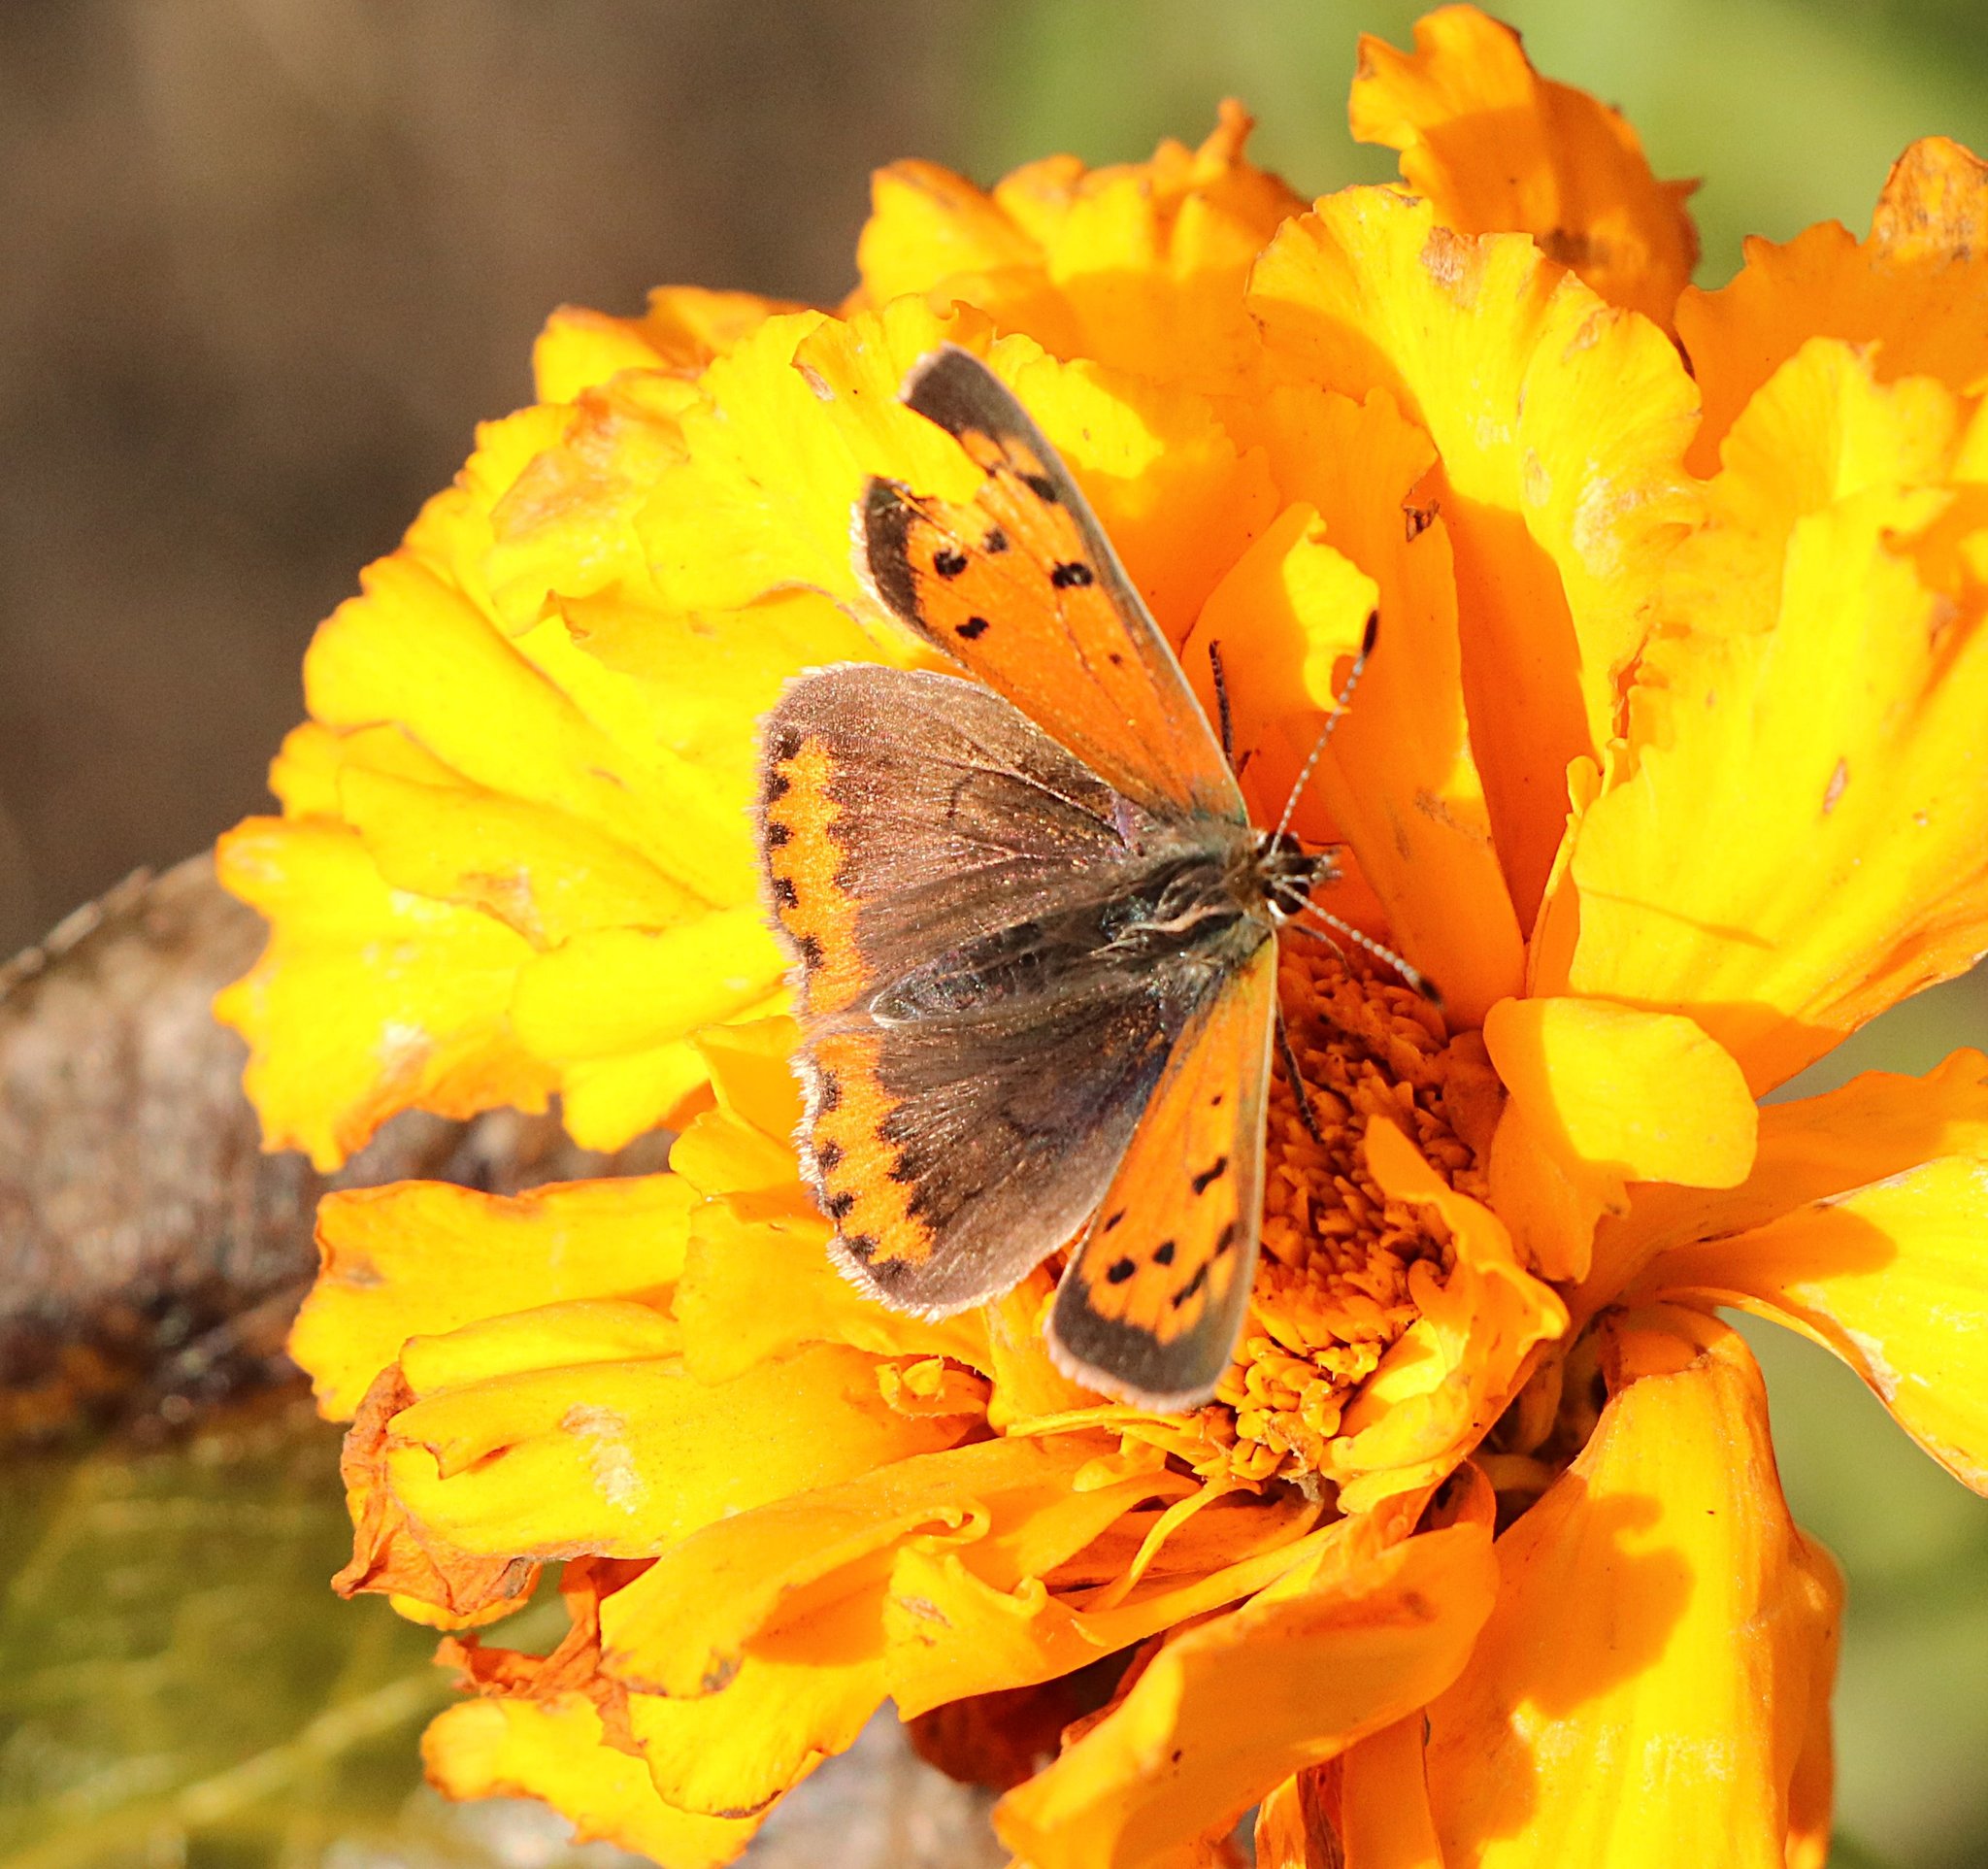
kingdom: Animalia
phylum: Arthropoda
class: Insecta
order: Lepidoptera
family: Lycaenidae
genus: Lycaena
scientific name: Lycaena phlaeas
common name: Small copper
